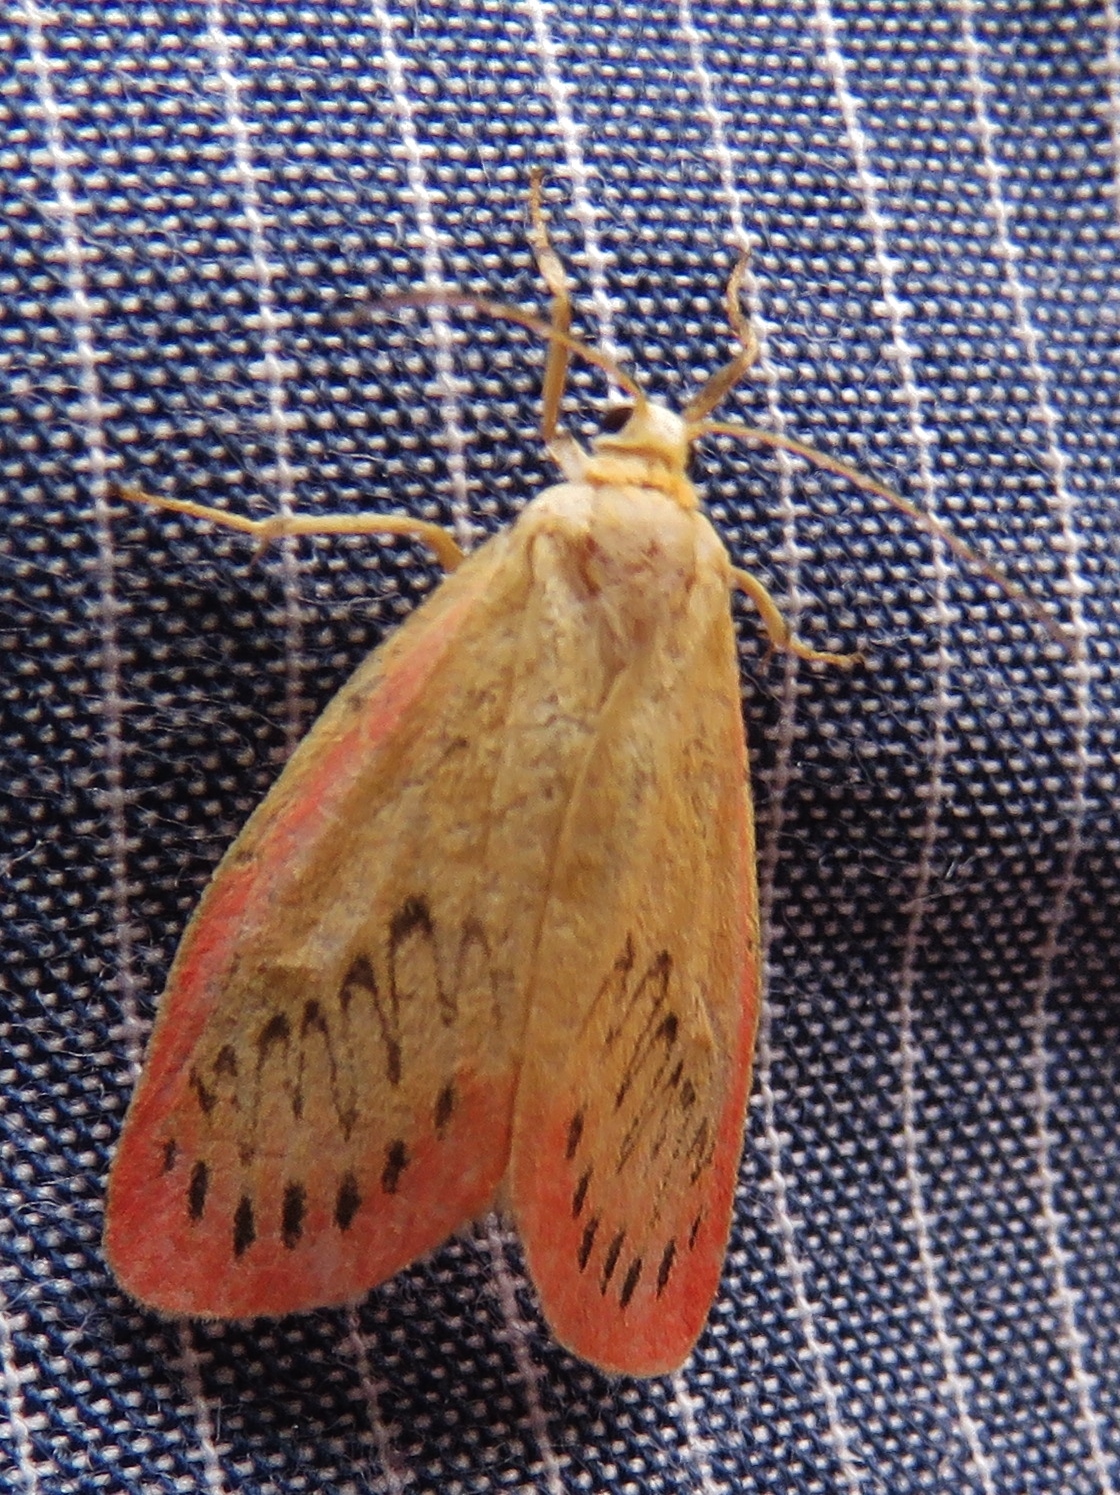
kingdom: Animalia
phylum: Arthropoda
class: Insecta
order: Lepidoptera
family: Erebidae
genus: Miltochrista
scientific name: Miltochrista miniata
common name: Rosy footman
